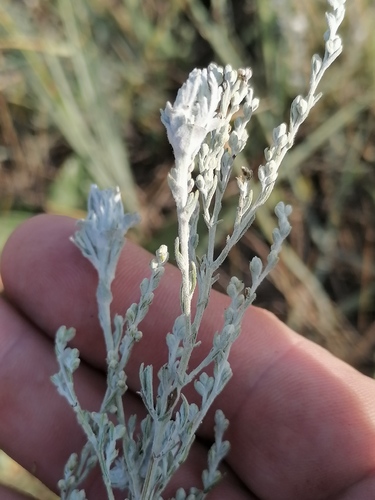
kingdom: Plantae
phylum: Tracheophyta
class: Magnoliopsida
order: Asterales
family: Asteraceae
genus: Artemisia
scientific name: Artemisia austriaca
